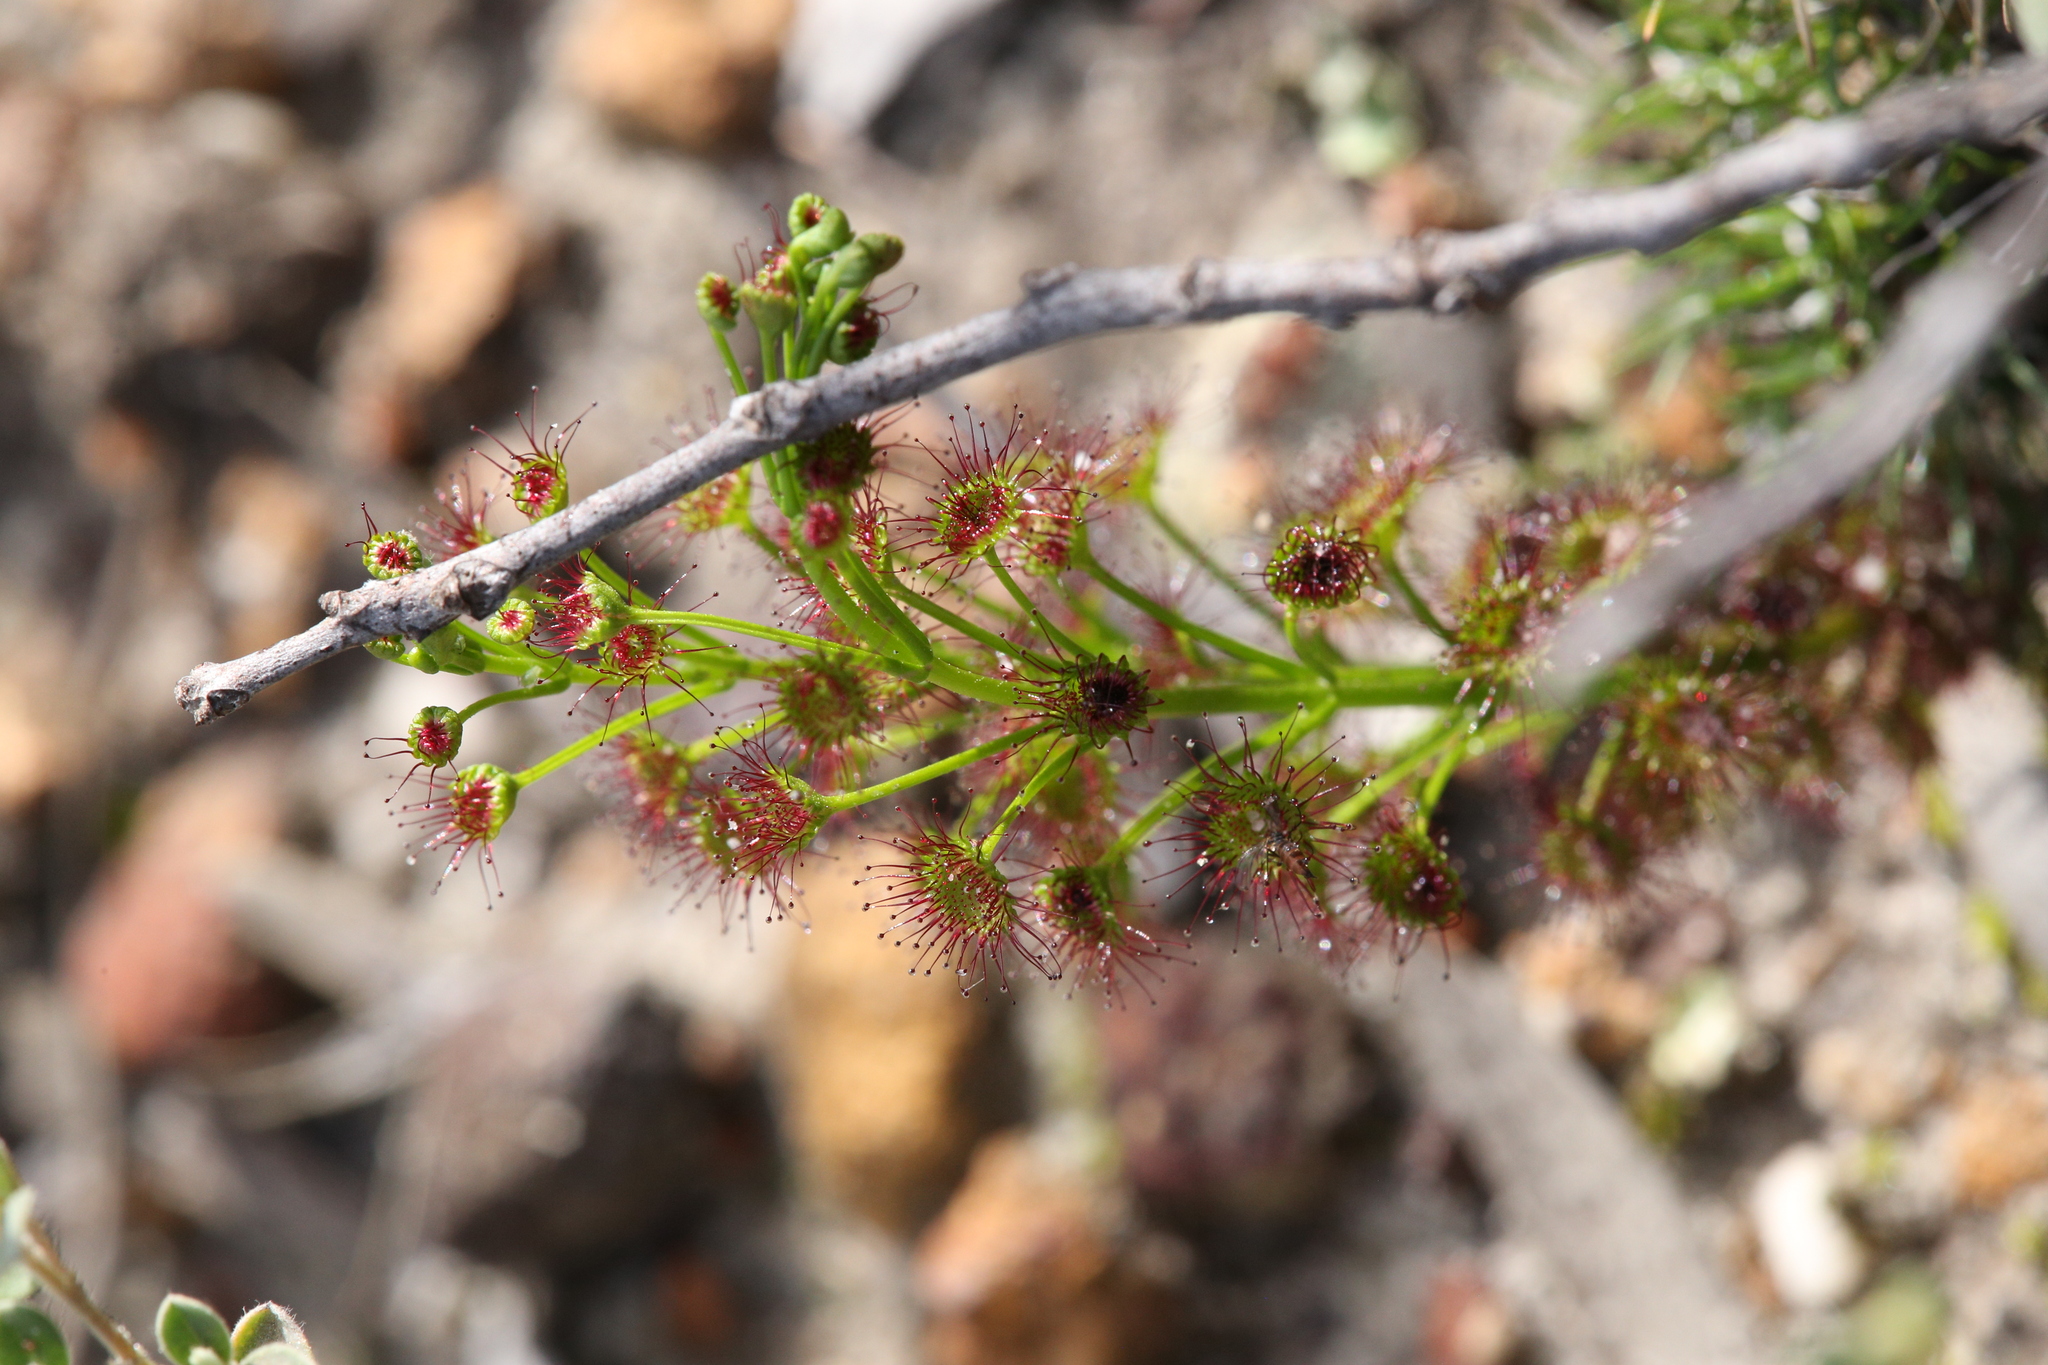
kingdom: Plantae
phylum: Tracheophyta
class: Magnoliopsida
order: Caryophyllales
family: Droseraceae
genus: Drosera
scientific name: Drosera stolonifera
